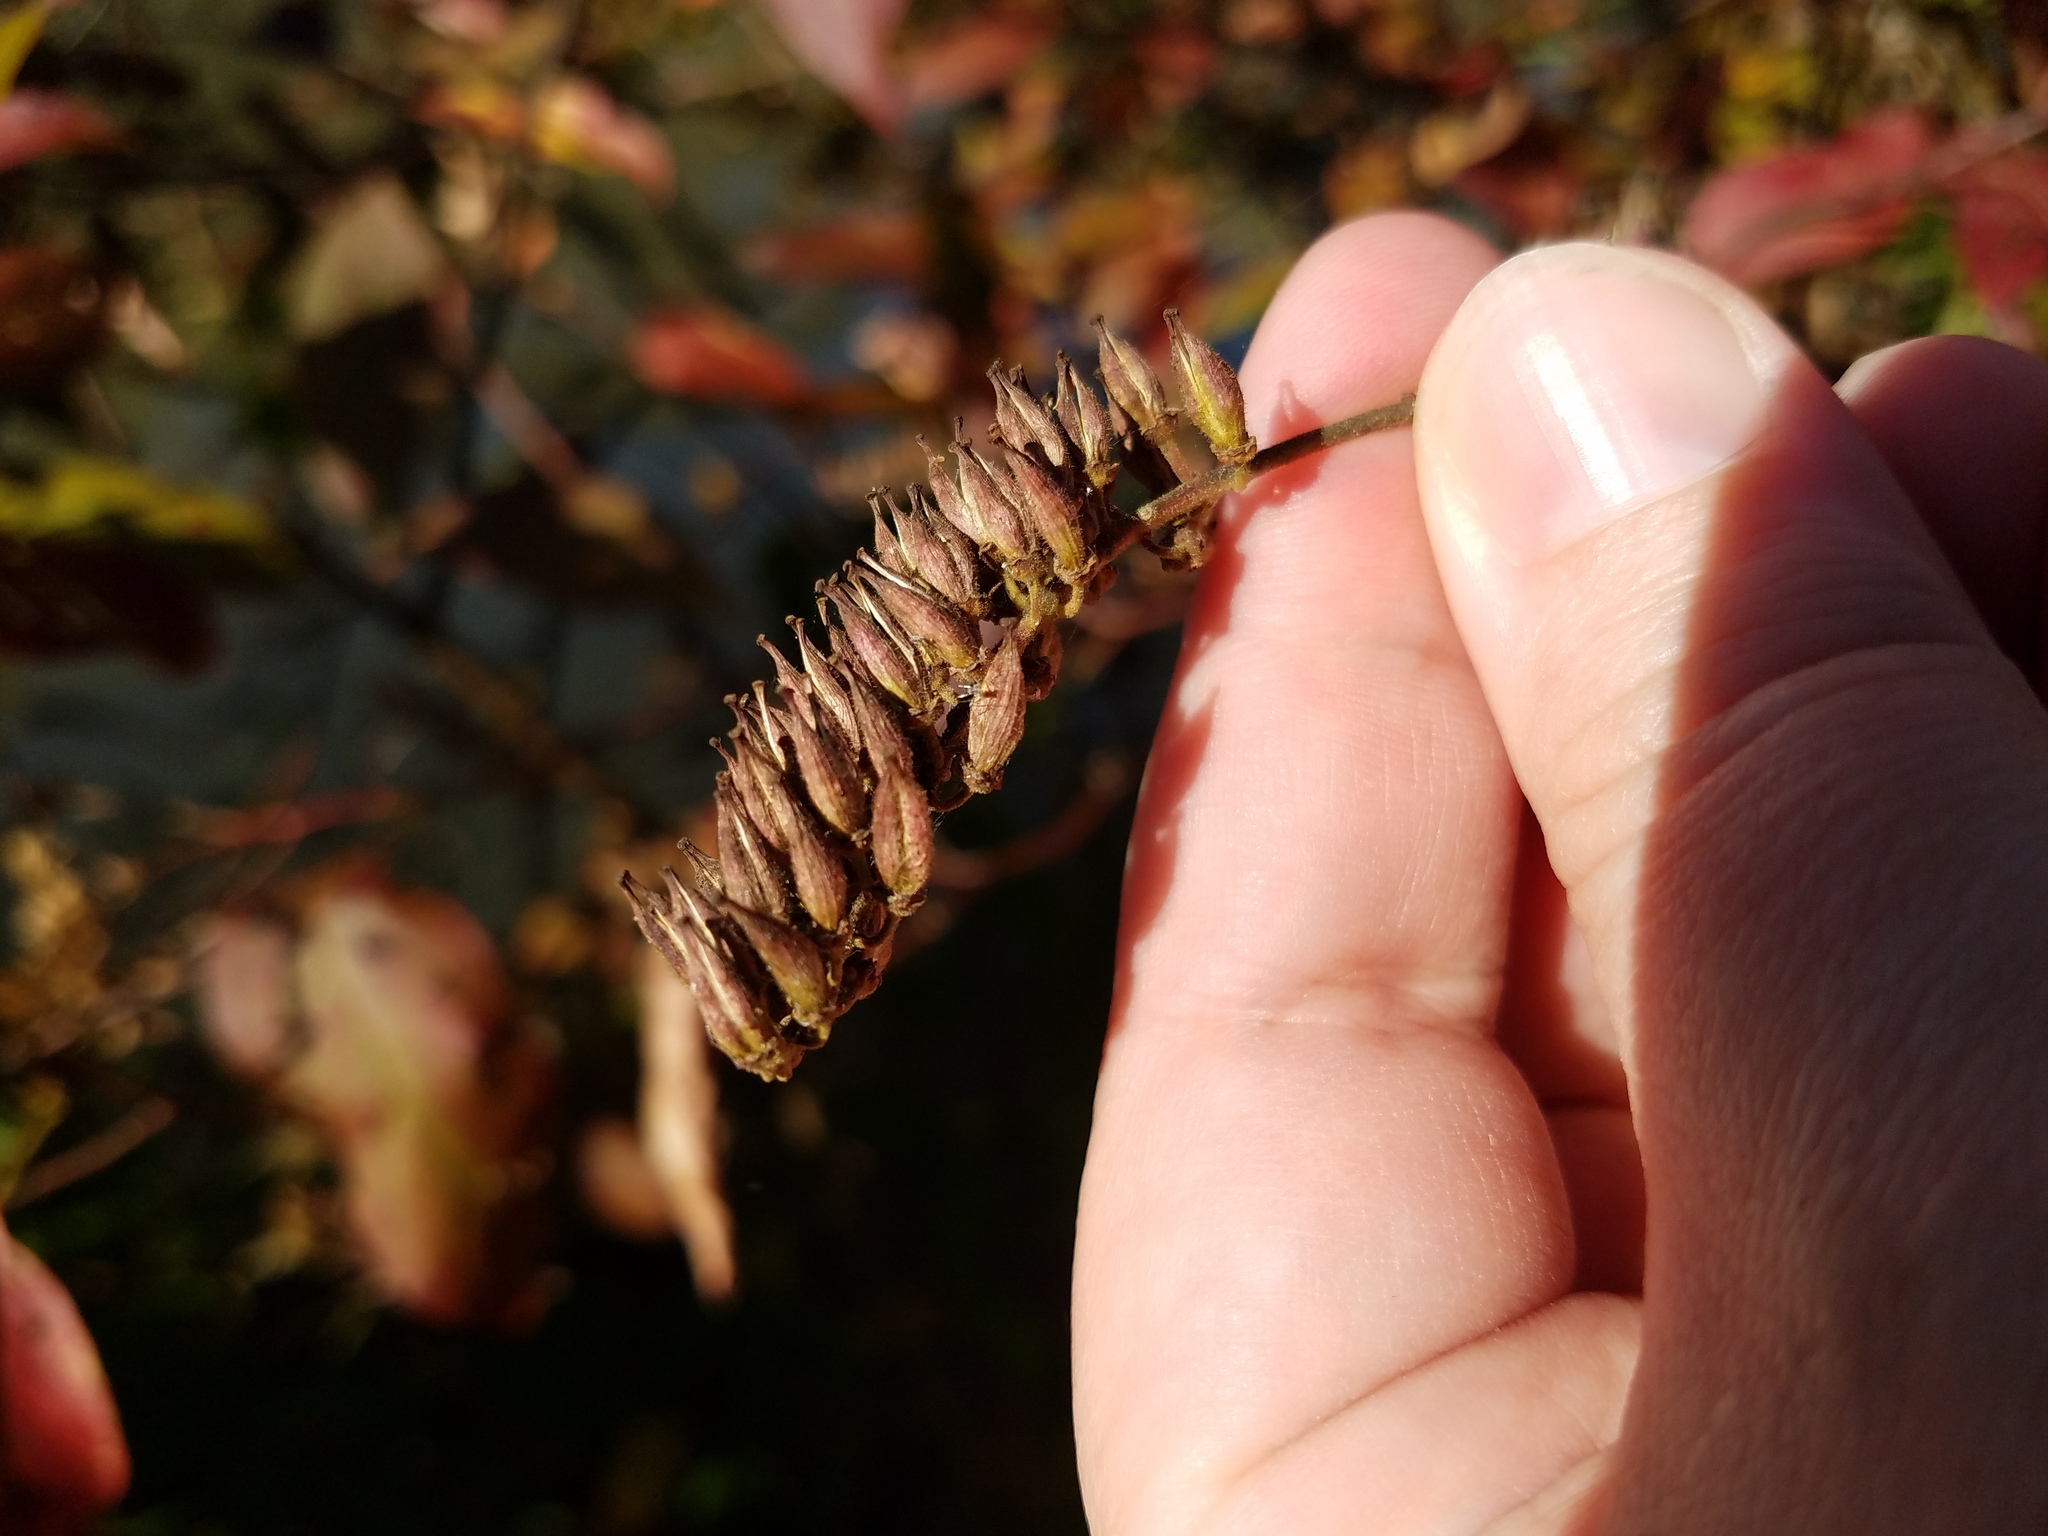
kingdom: Plantae
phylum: Tracheophyta
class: Magnoliopsida
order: Saxifragales
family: Iteaceae
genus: Itea
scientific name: Itea virginica
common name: Sweetspire
